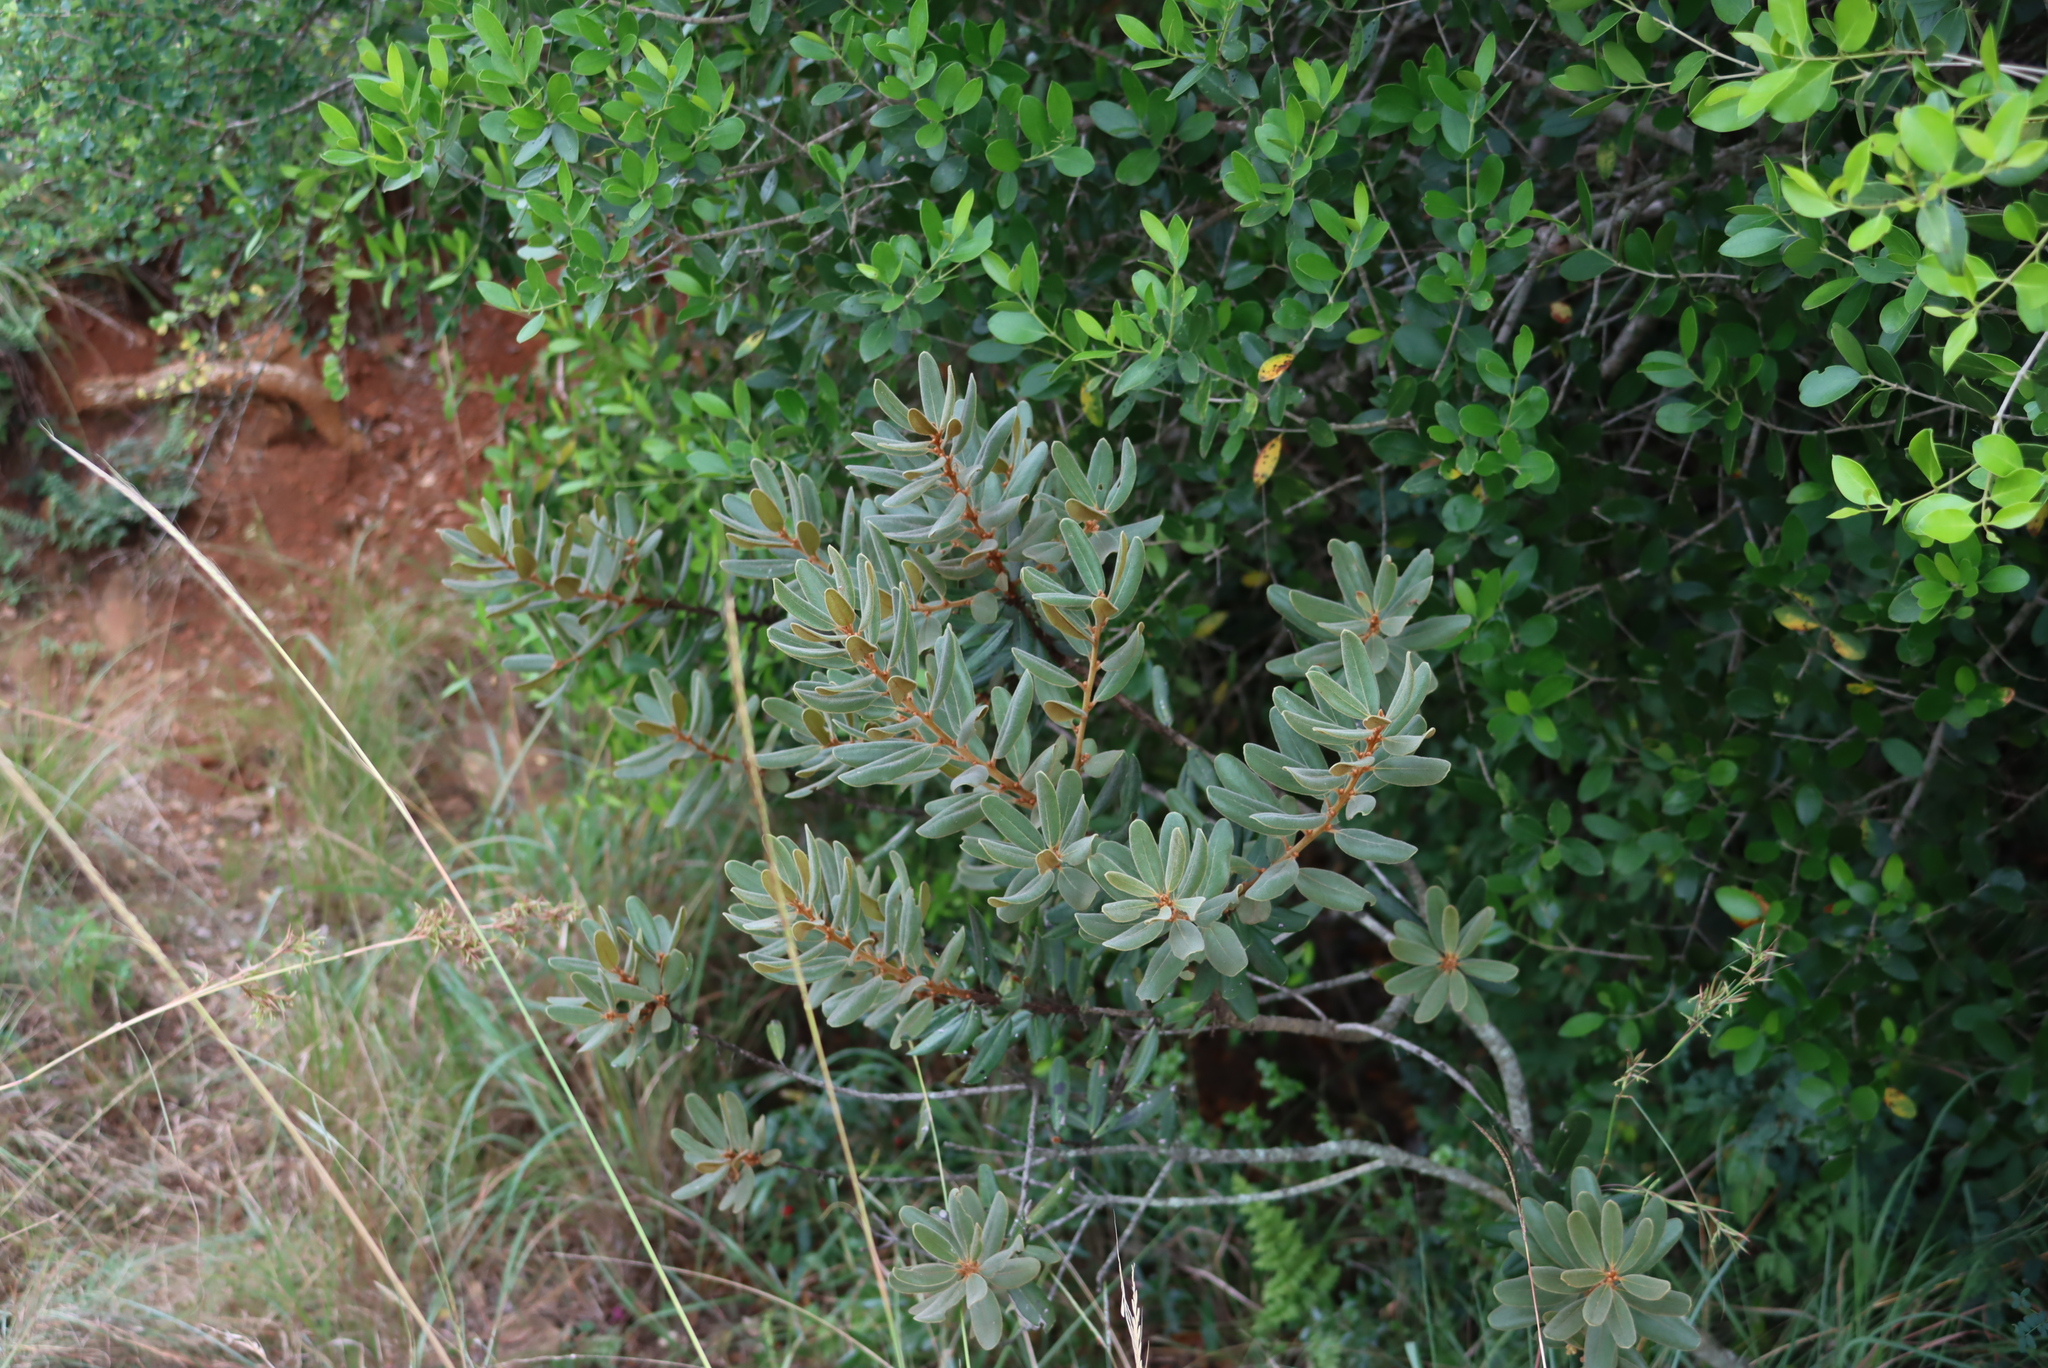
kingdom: Plantae
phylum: Tracheophyta
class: Magnoliopsida
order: Ericales
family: Ebenaceae
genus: Euclea
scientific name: Euclea natalensis
